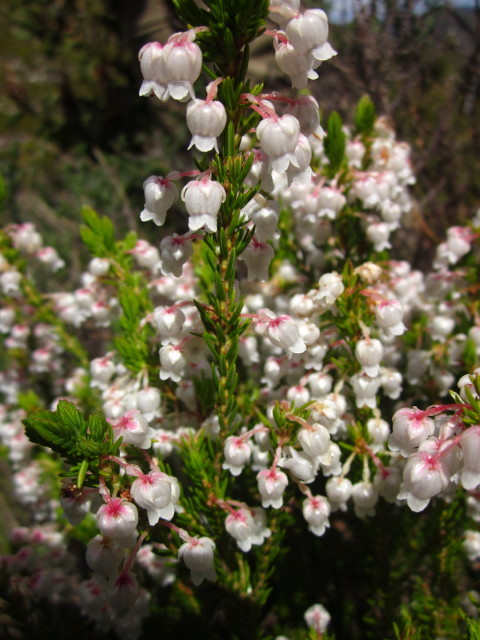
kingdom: Plantae
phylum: Tracheophyta
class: Magnoliopsida
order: Ericales
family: Ericaceae
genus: Erica
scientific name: Erica physodes
